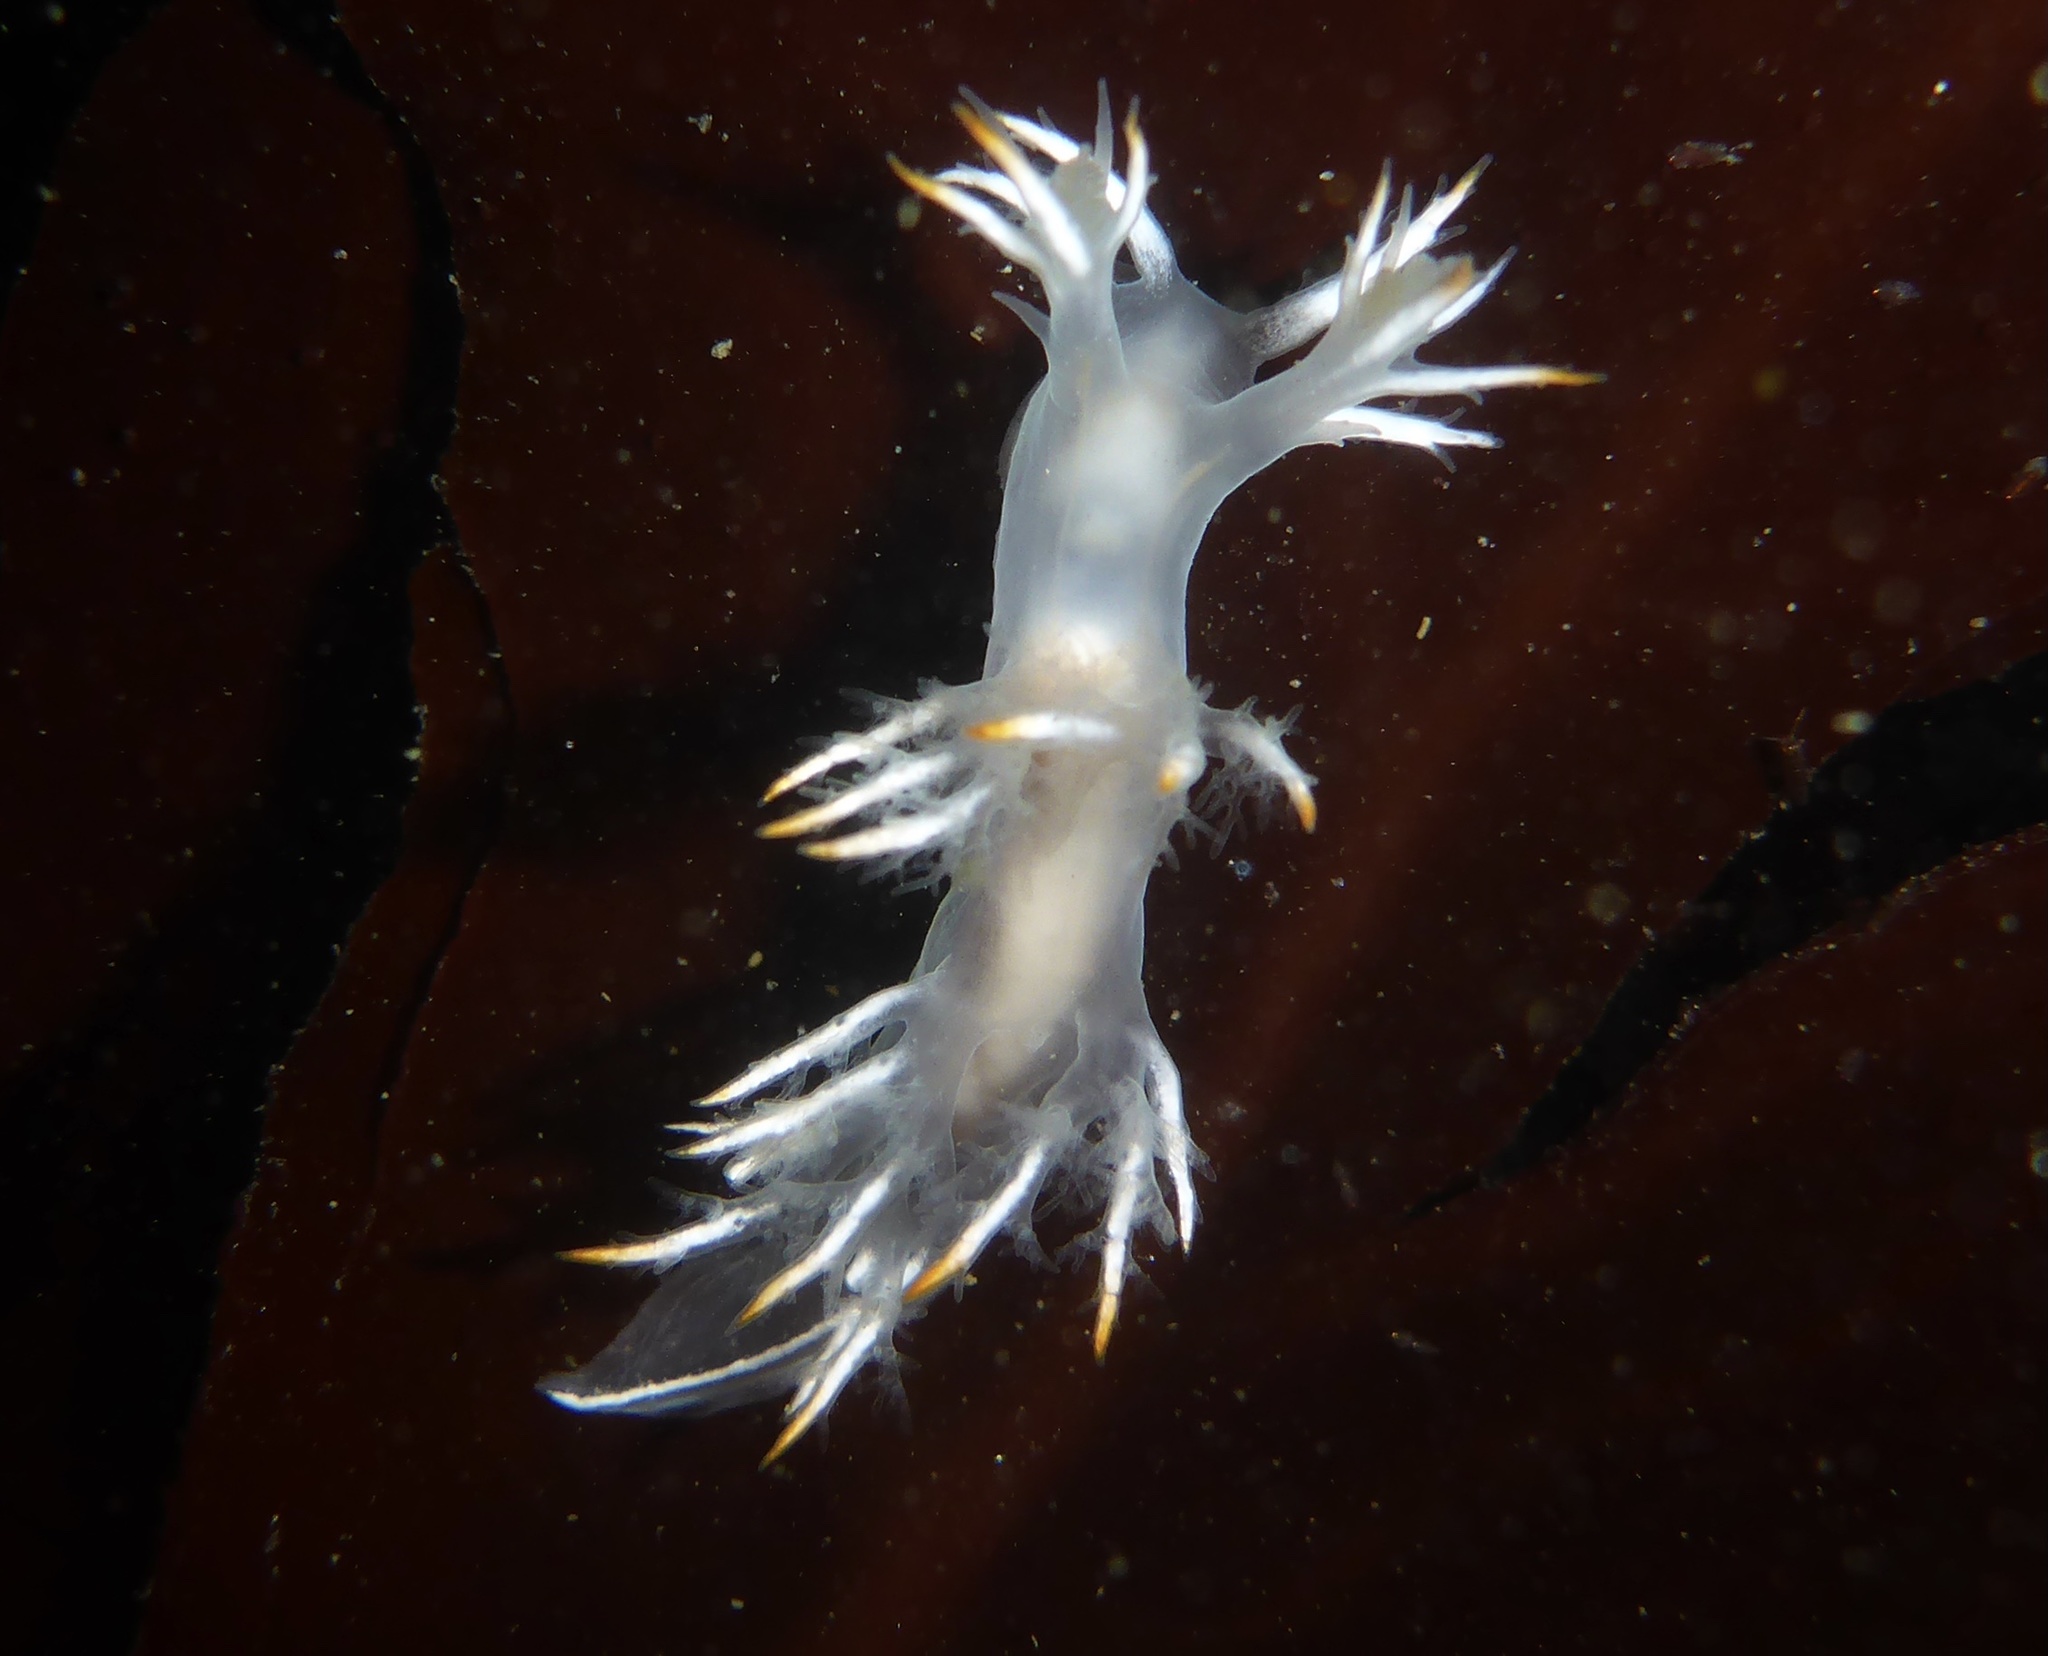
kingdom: Animalia
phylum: Mollusca
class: Gastropoda
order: Nudibranchia
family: Dendronotidae
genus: Dendronotus
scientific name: Dendronotus albus
